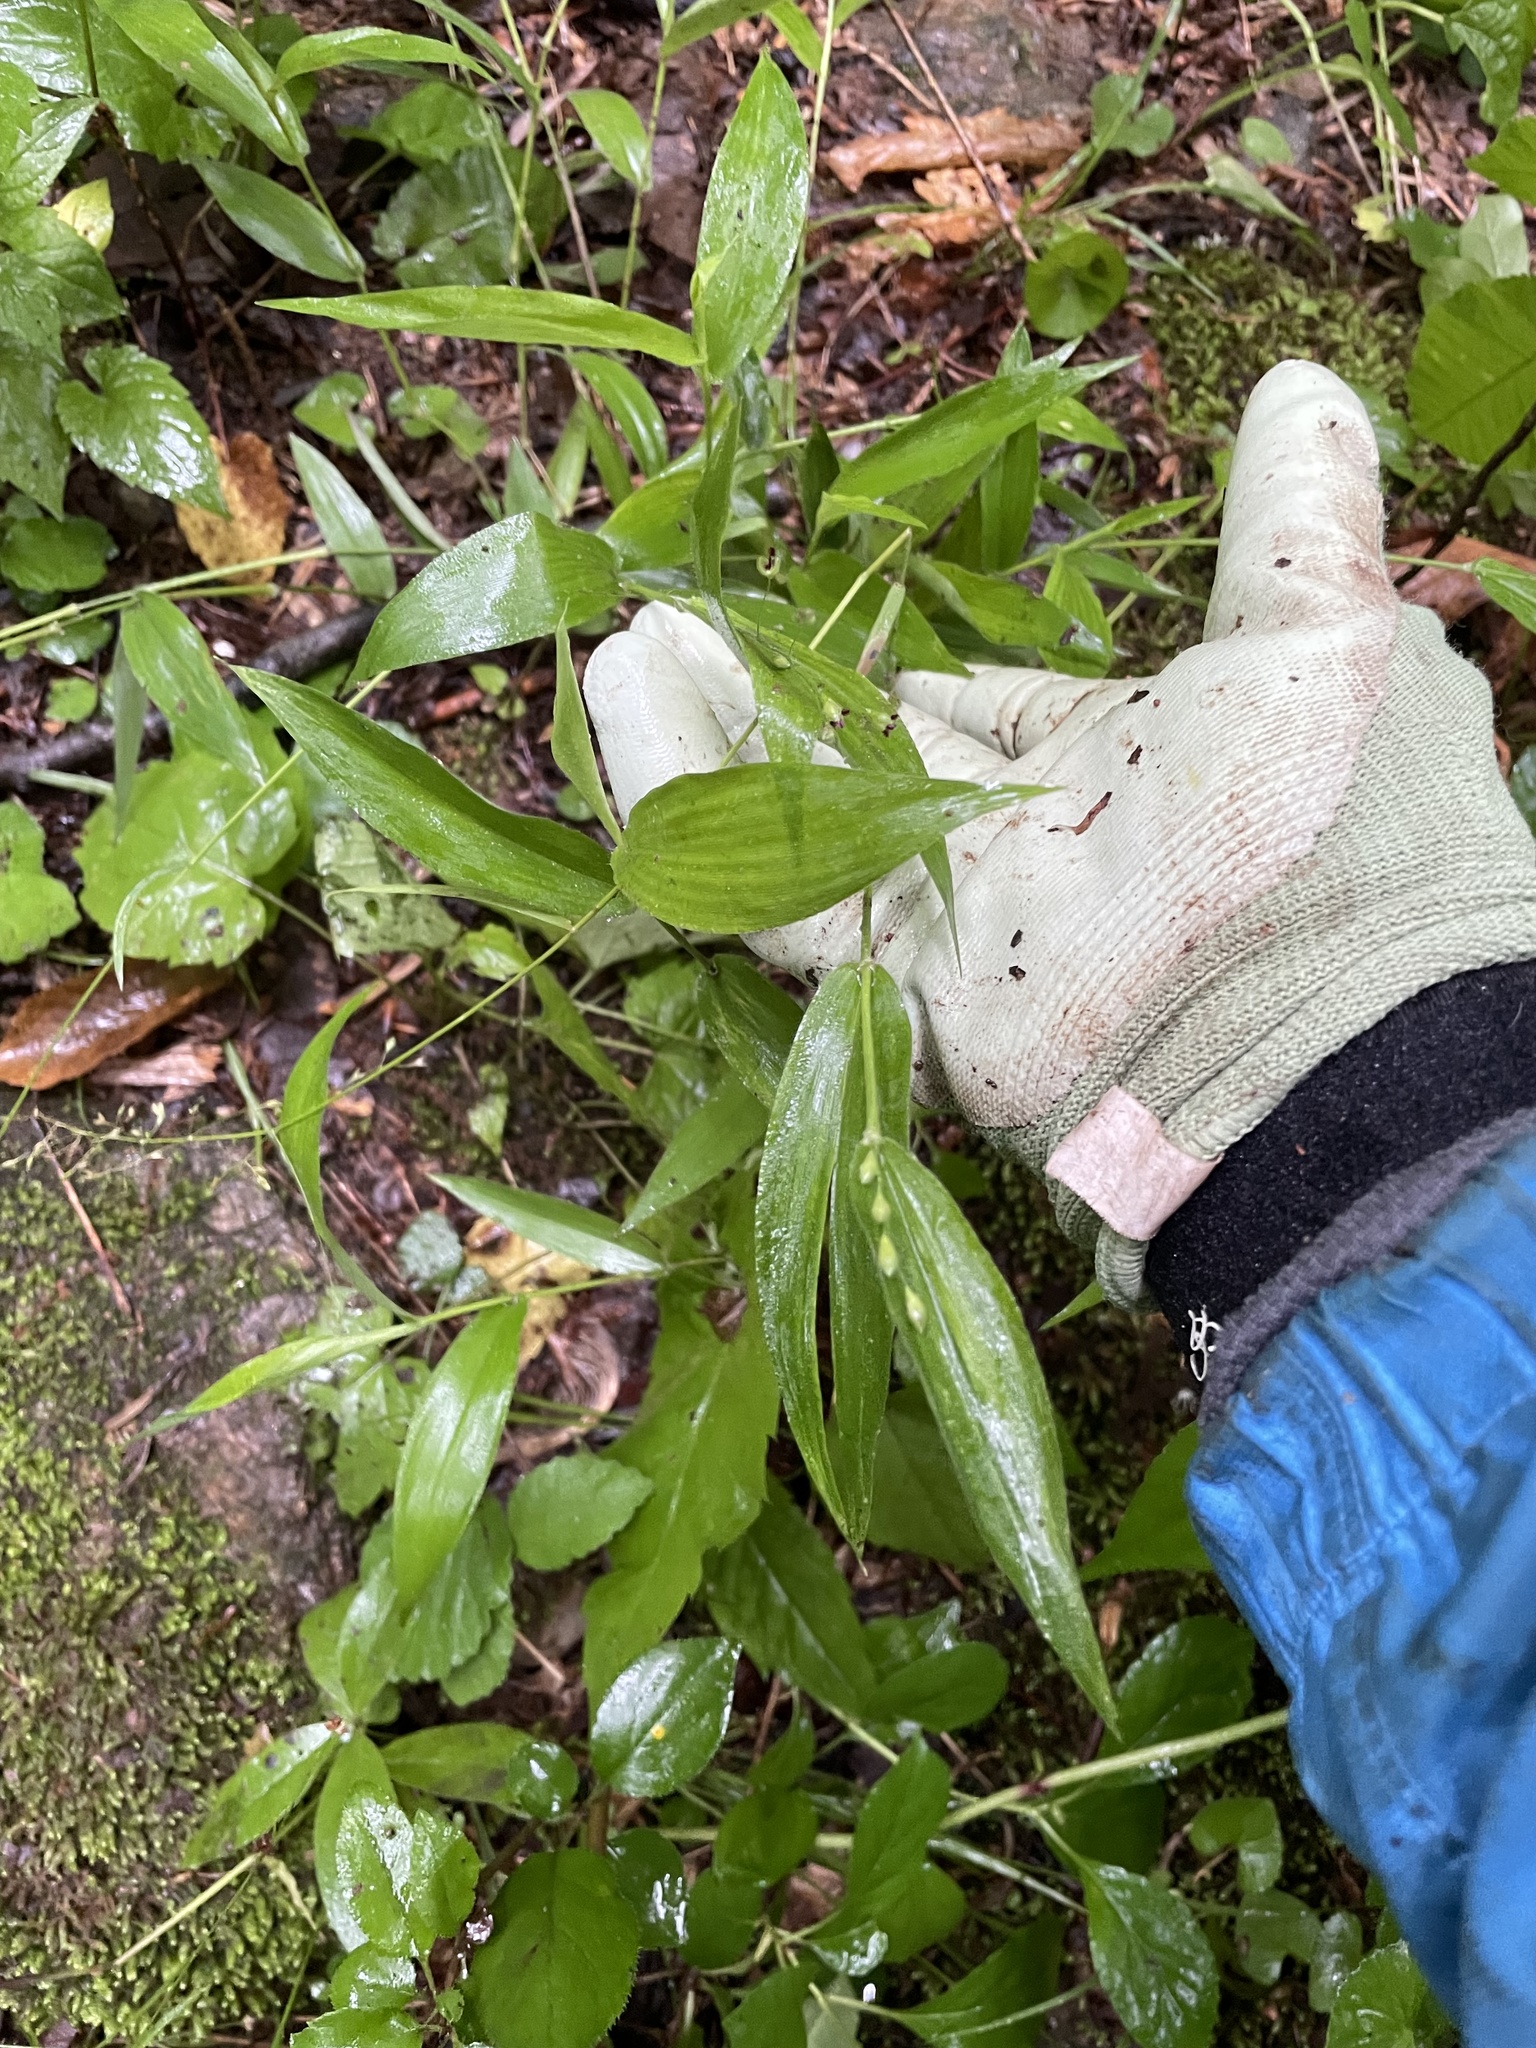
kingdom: Plantae
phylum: Tracheophyta
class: Liliopsida
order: Poales
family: Poaceae
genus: Dichanthelium
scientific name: Dichanthelium clandestinum
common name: Deer-tongue grass
